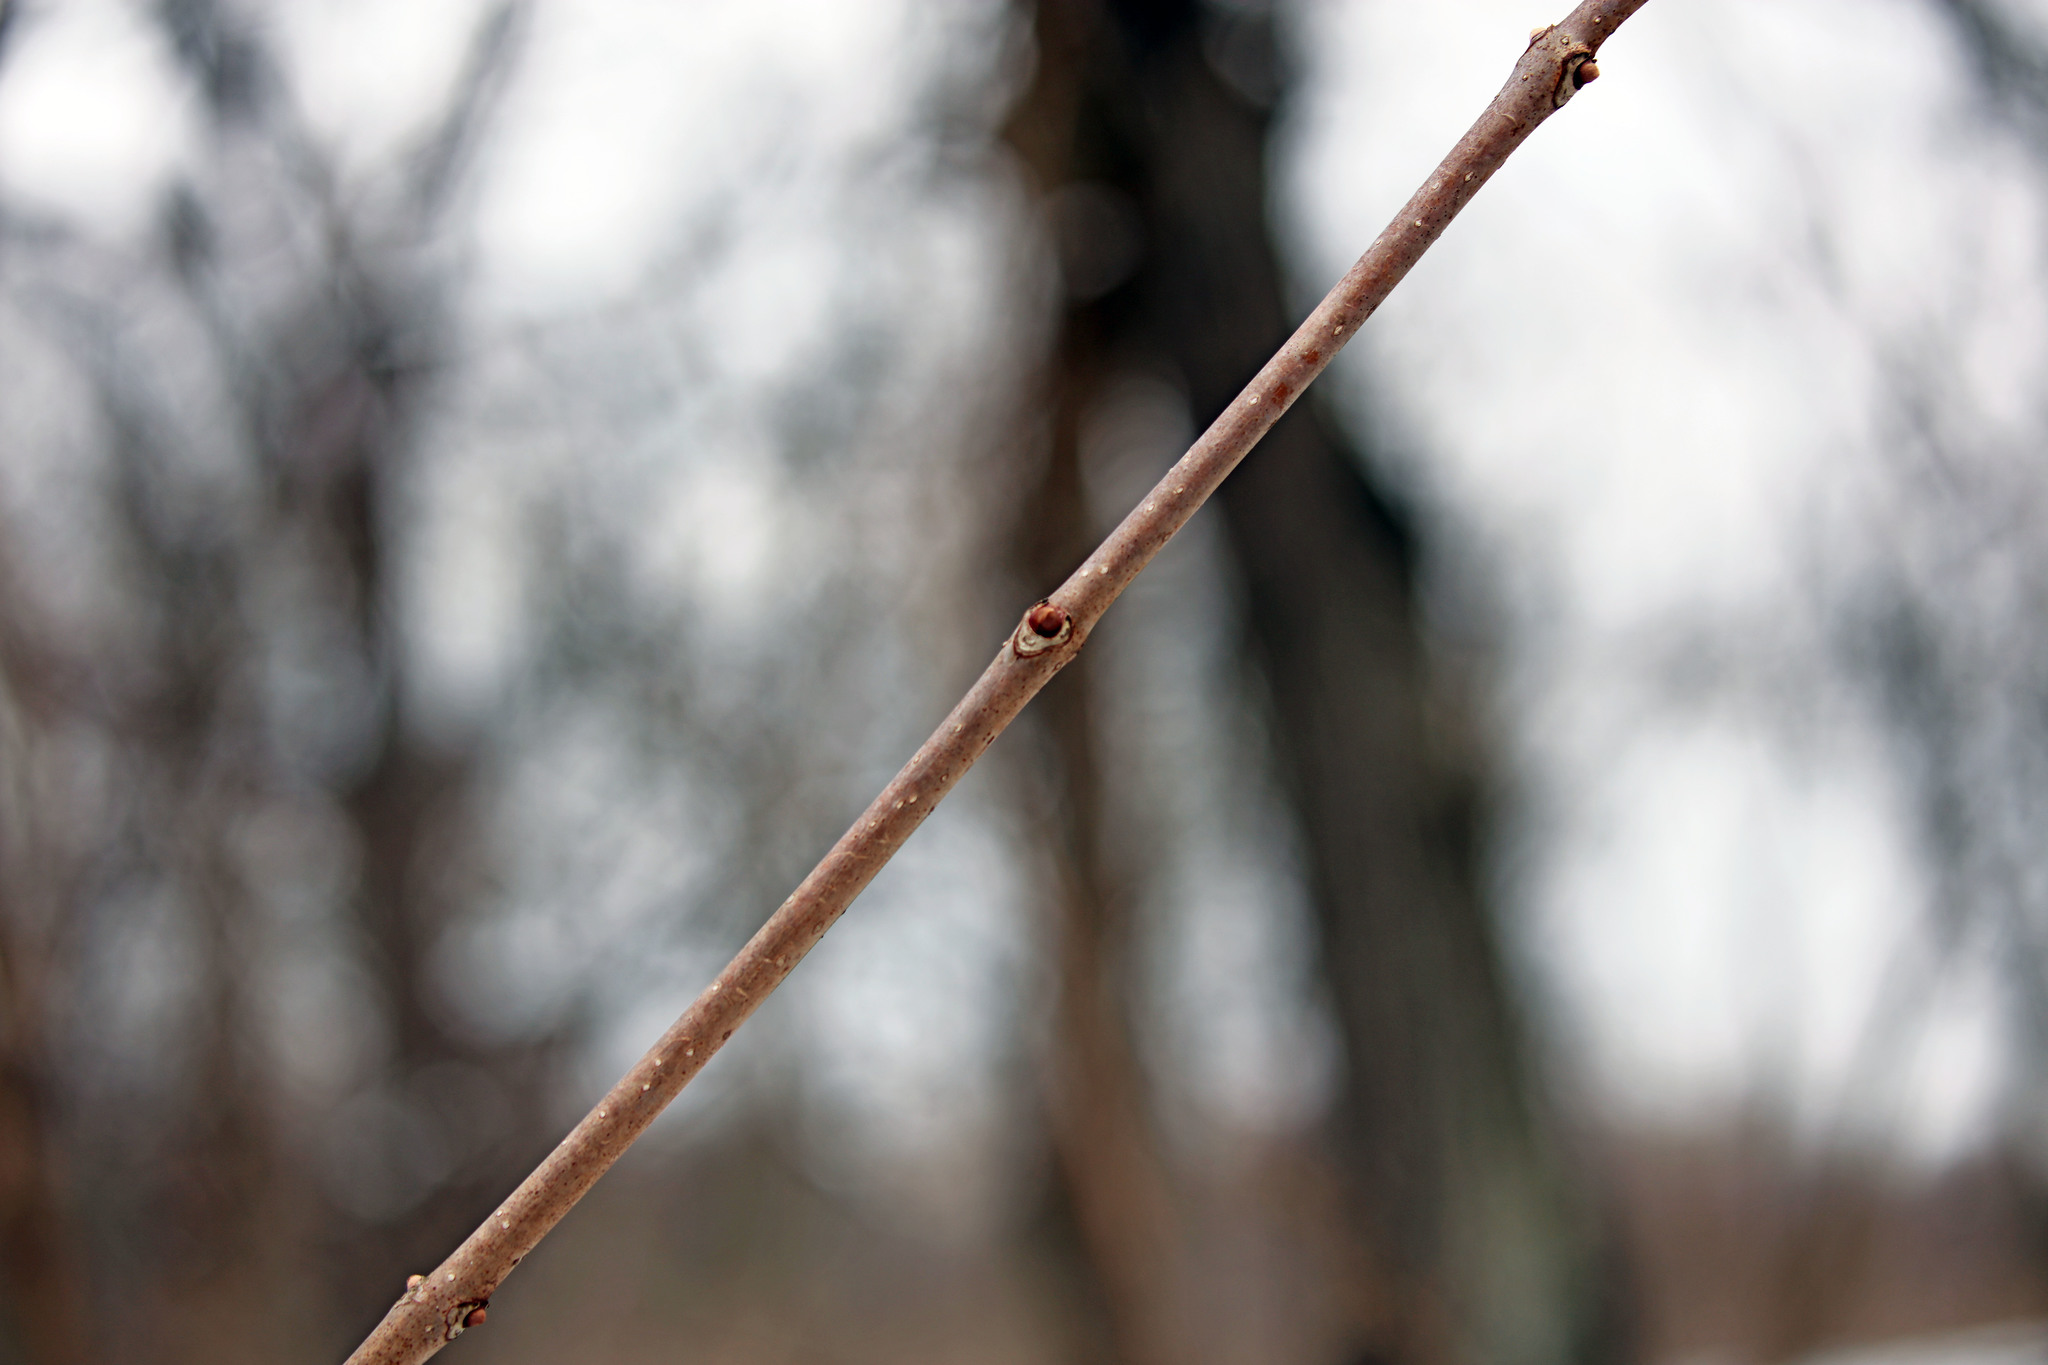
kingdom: Plantae
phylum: Tracheophyta
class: Magnoliopsida
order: Sapindales
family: Rutaceae
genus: Phellodendron
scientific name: Phellodendron amurense
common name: Amur corktree
